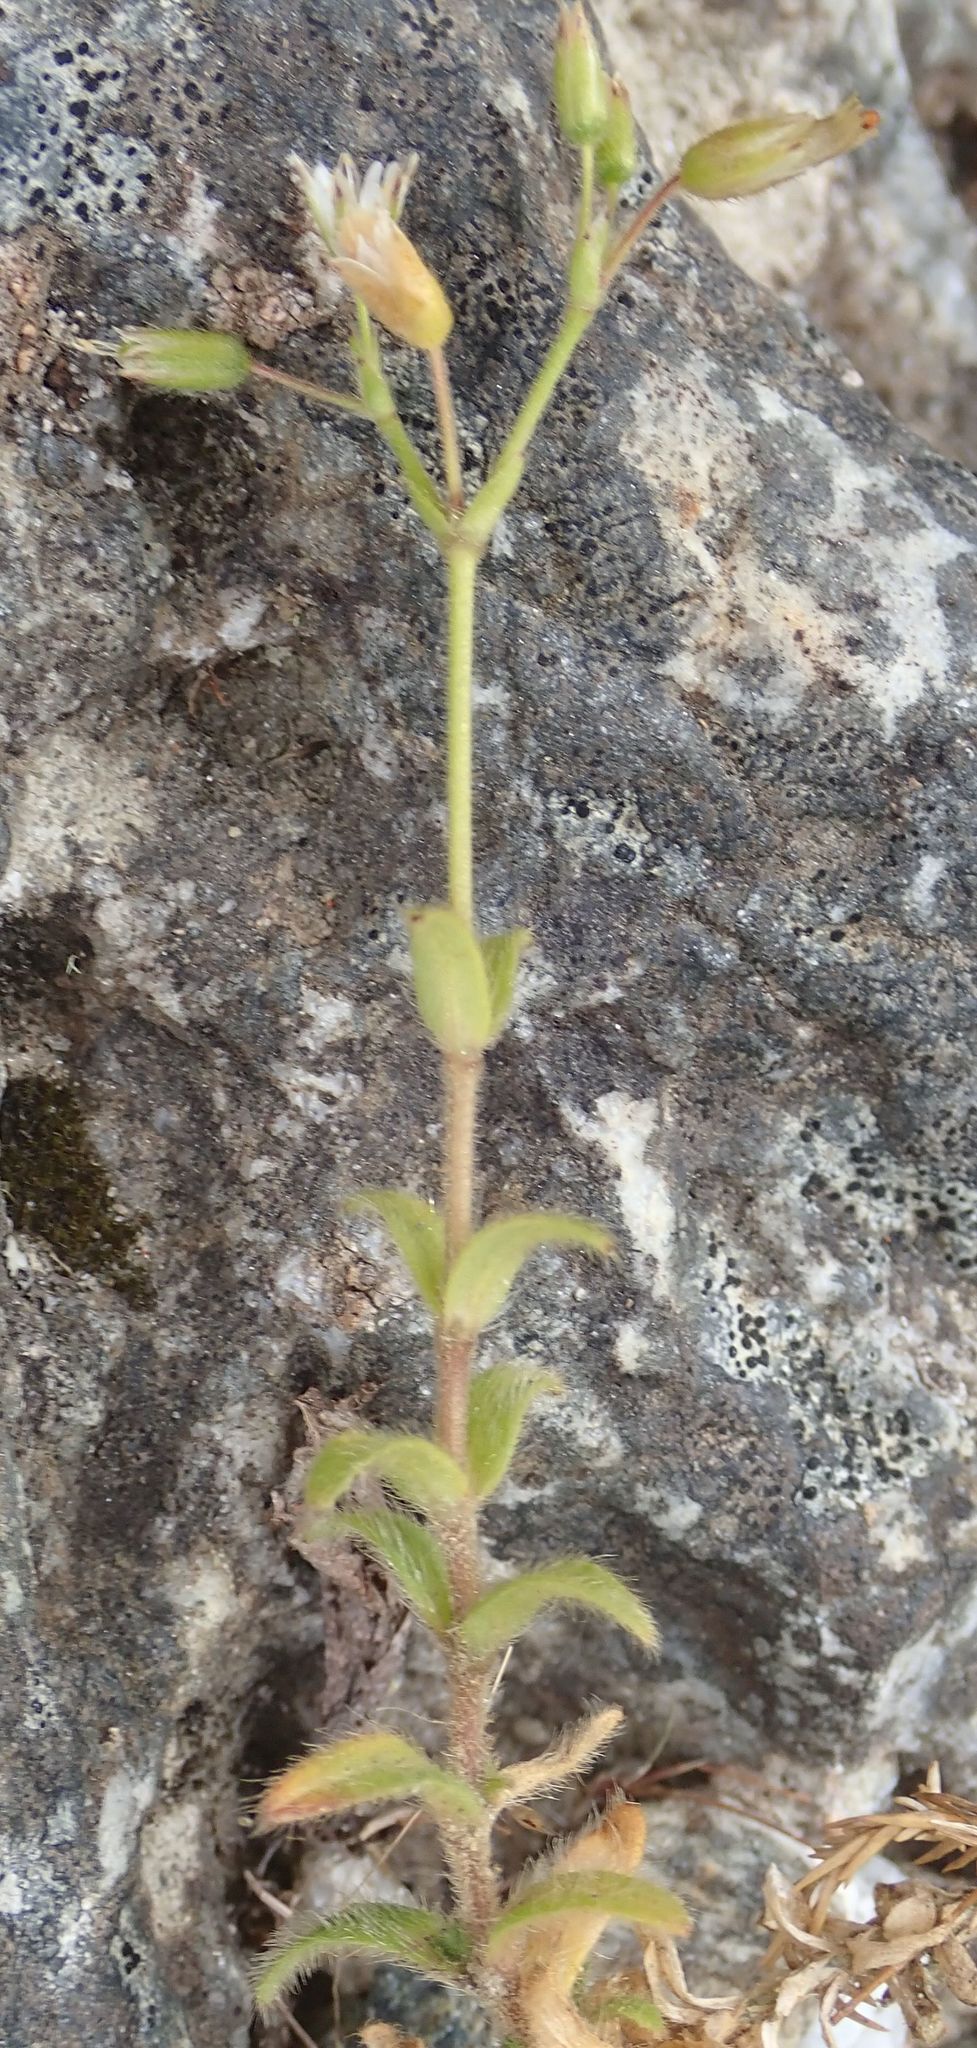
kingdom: Plantae
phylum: Tracheophyta
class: Magnoliopsida
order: Caryophyllales
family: Caryophyllaceae
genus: Cerastium
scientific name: Cerastium fontanum
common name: Common mouse-ear
